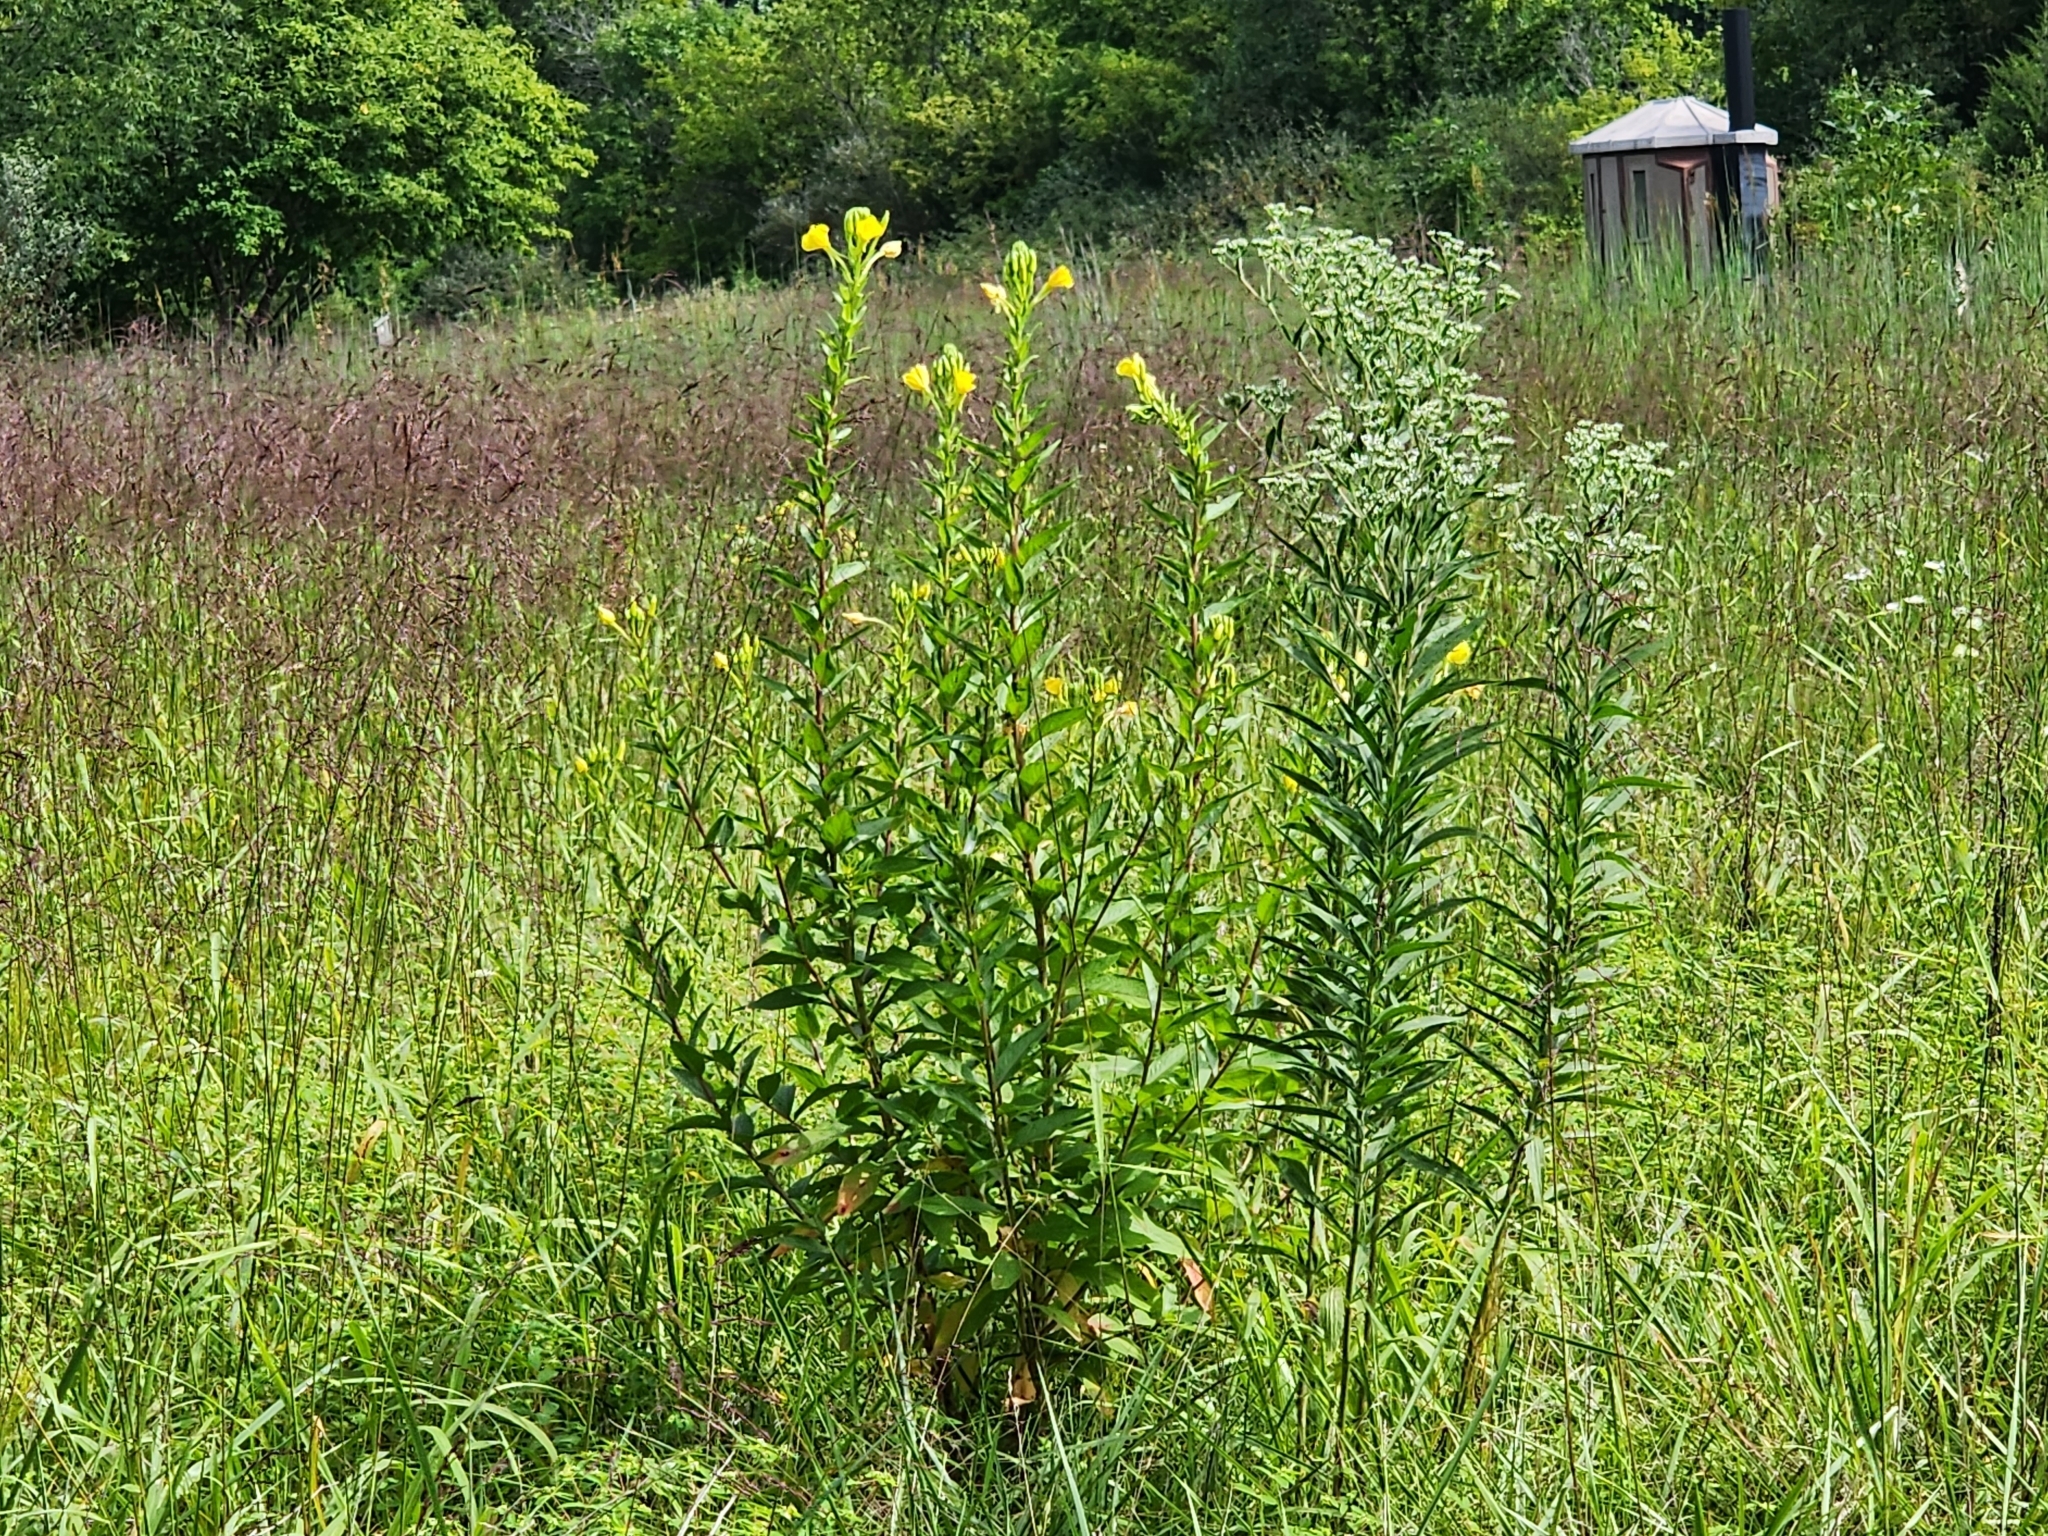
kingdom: Plantae
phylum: Tracheophyta
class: Magnoliopsida
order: Myrtales
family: Onagraceae
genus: Oenothera
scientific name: Oenothera biennis
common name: Common evening-primrose
